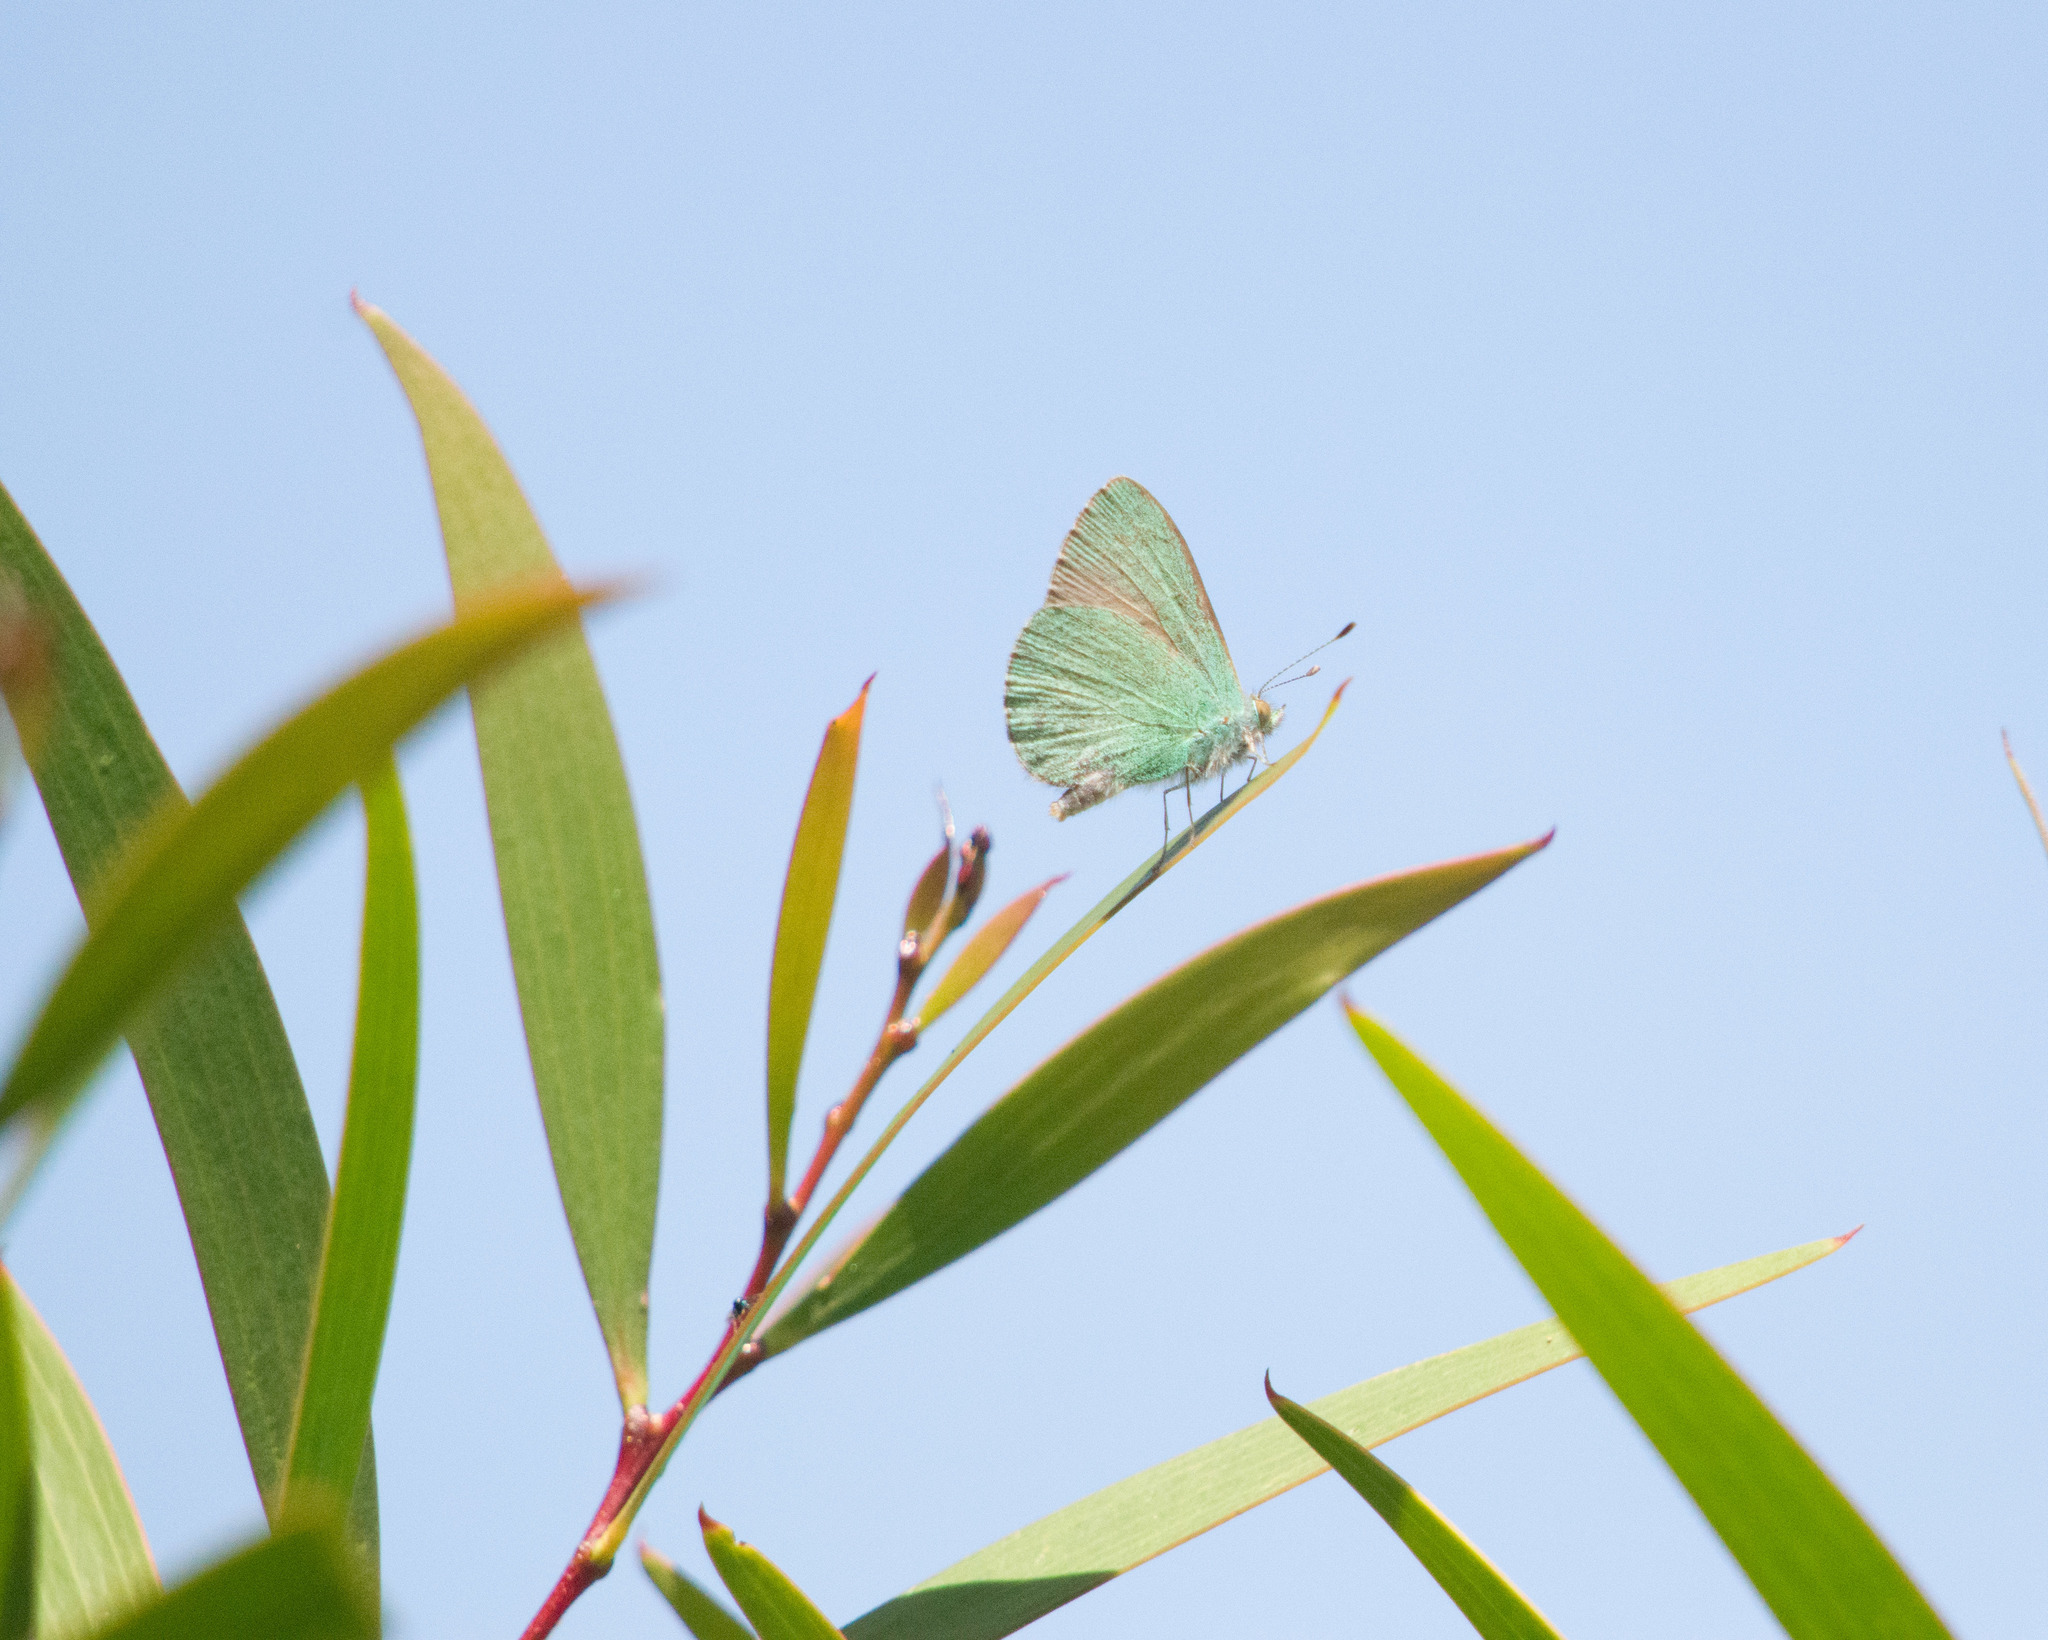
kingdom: Animalia
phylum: Arthropoda
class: Insecta
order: Lepidoptera
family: Lycaenidae
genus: Udara
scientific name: Udara blackburni
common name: Blackburn's blue
